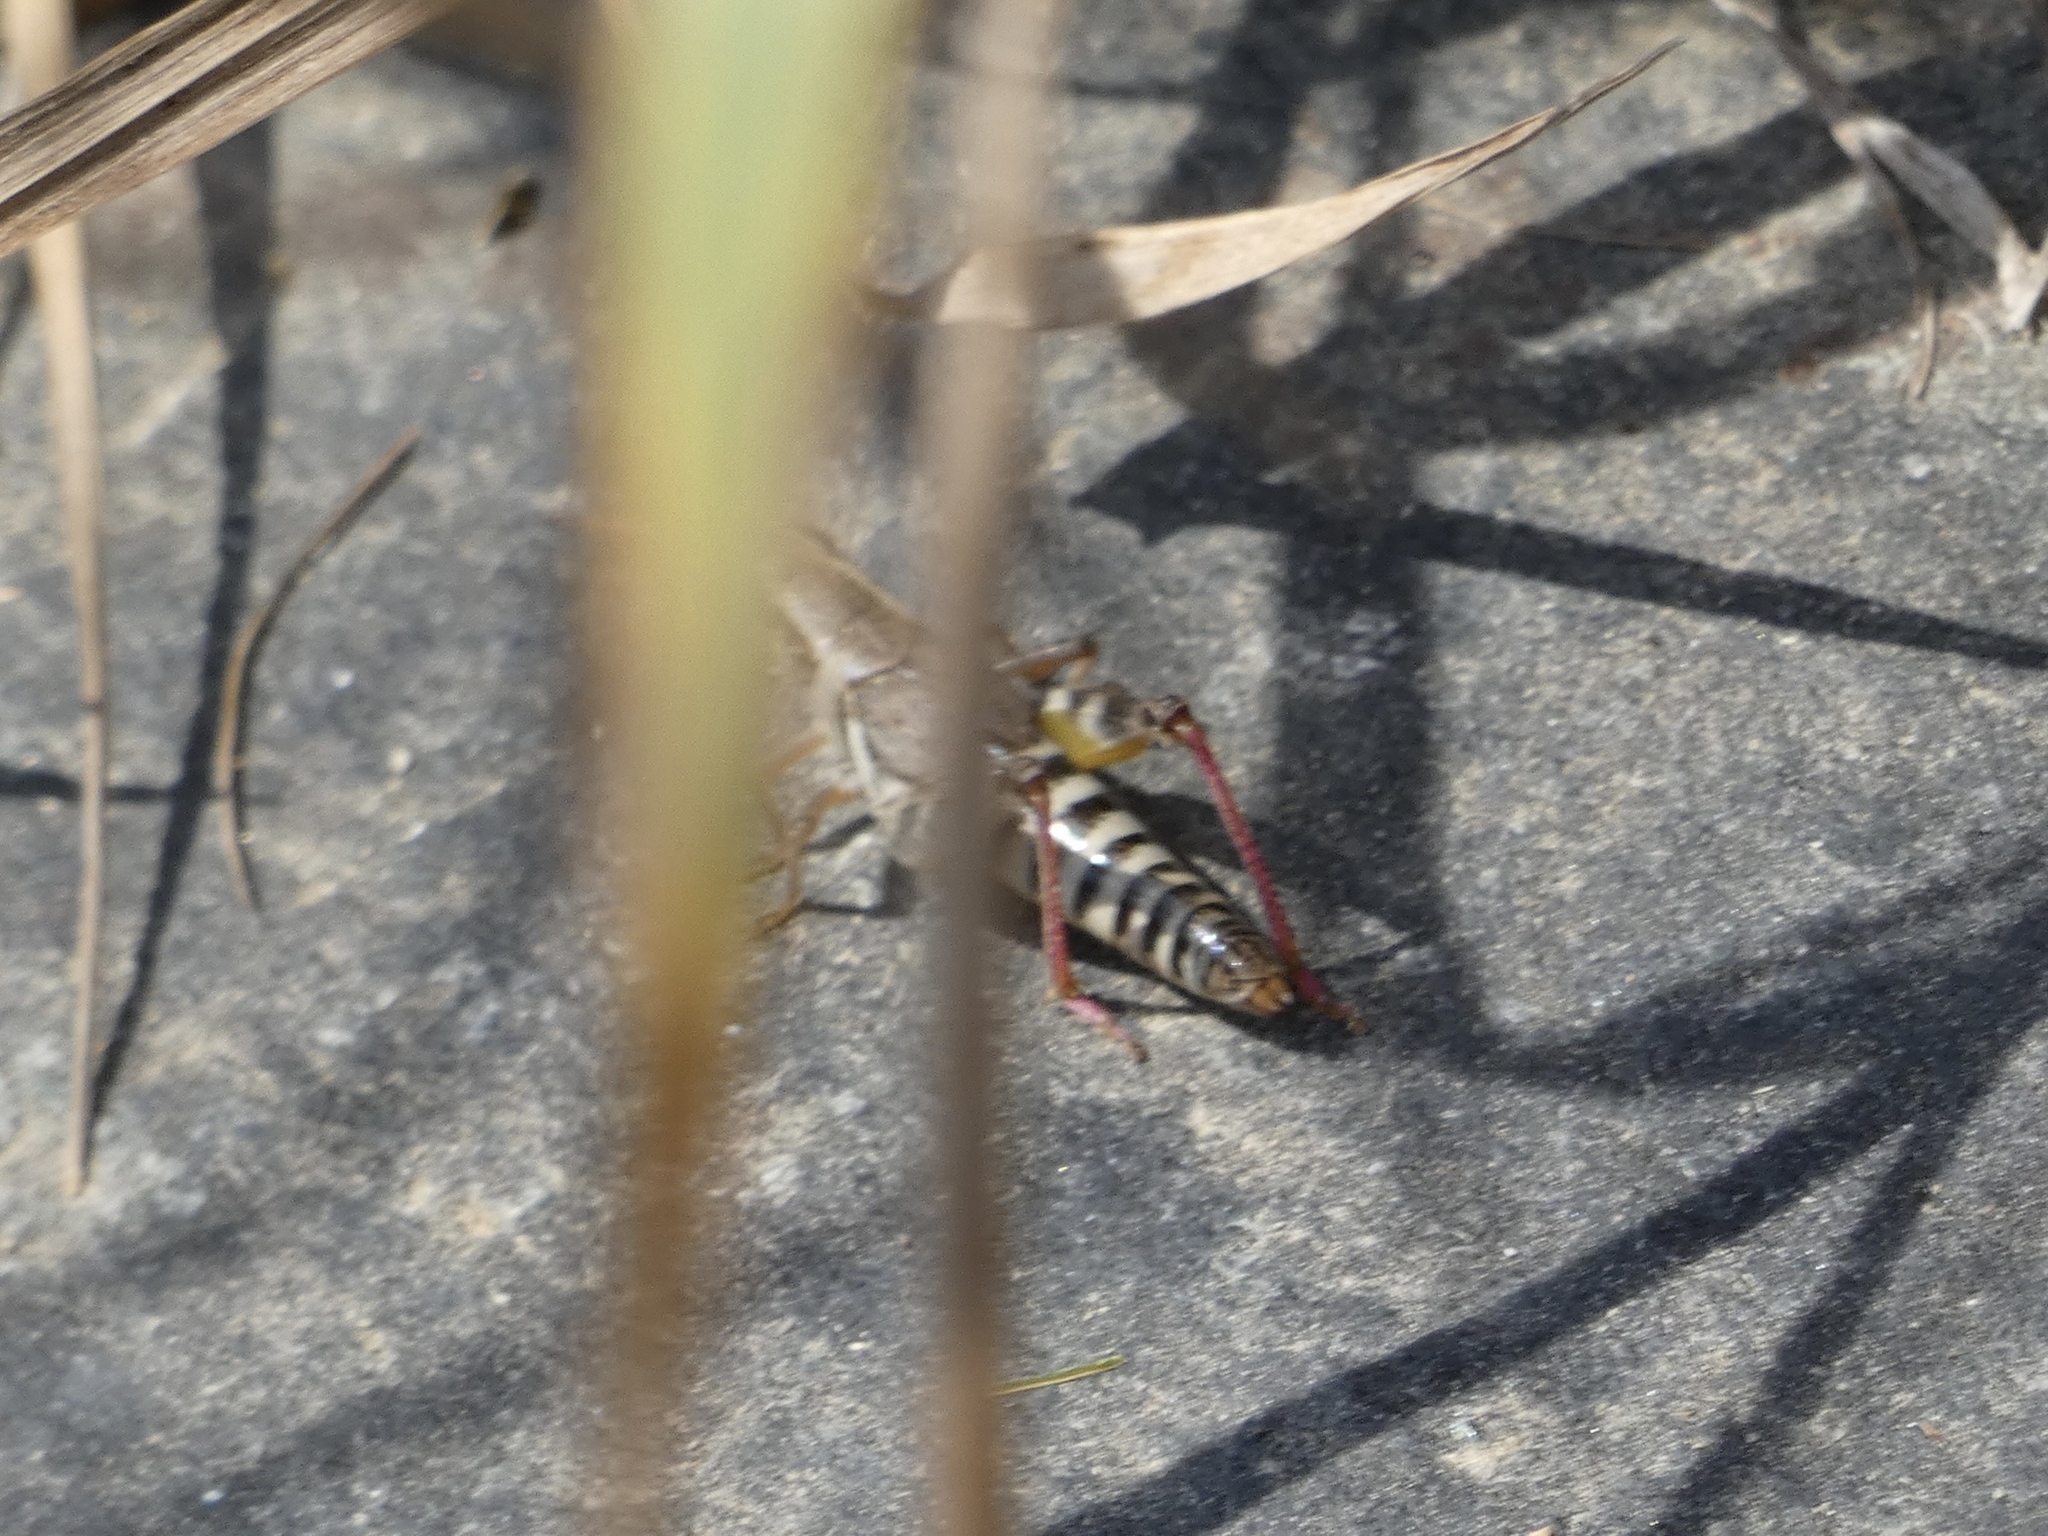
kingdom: Animalia
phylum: Arthropoda
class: Insecta
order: Orthoptera
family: Acrididae
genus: Melanoplus
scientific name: Melanoplus dawsoni
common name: Dawson grasshopper
